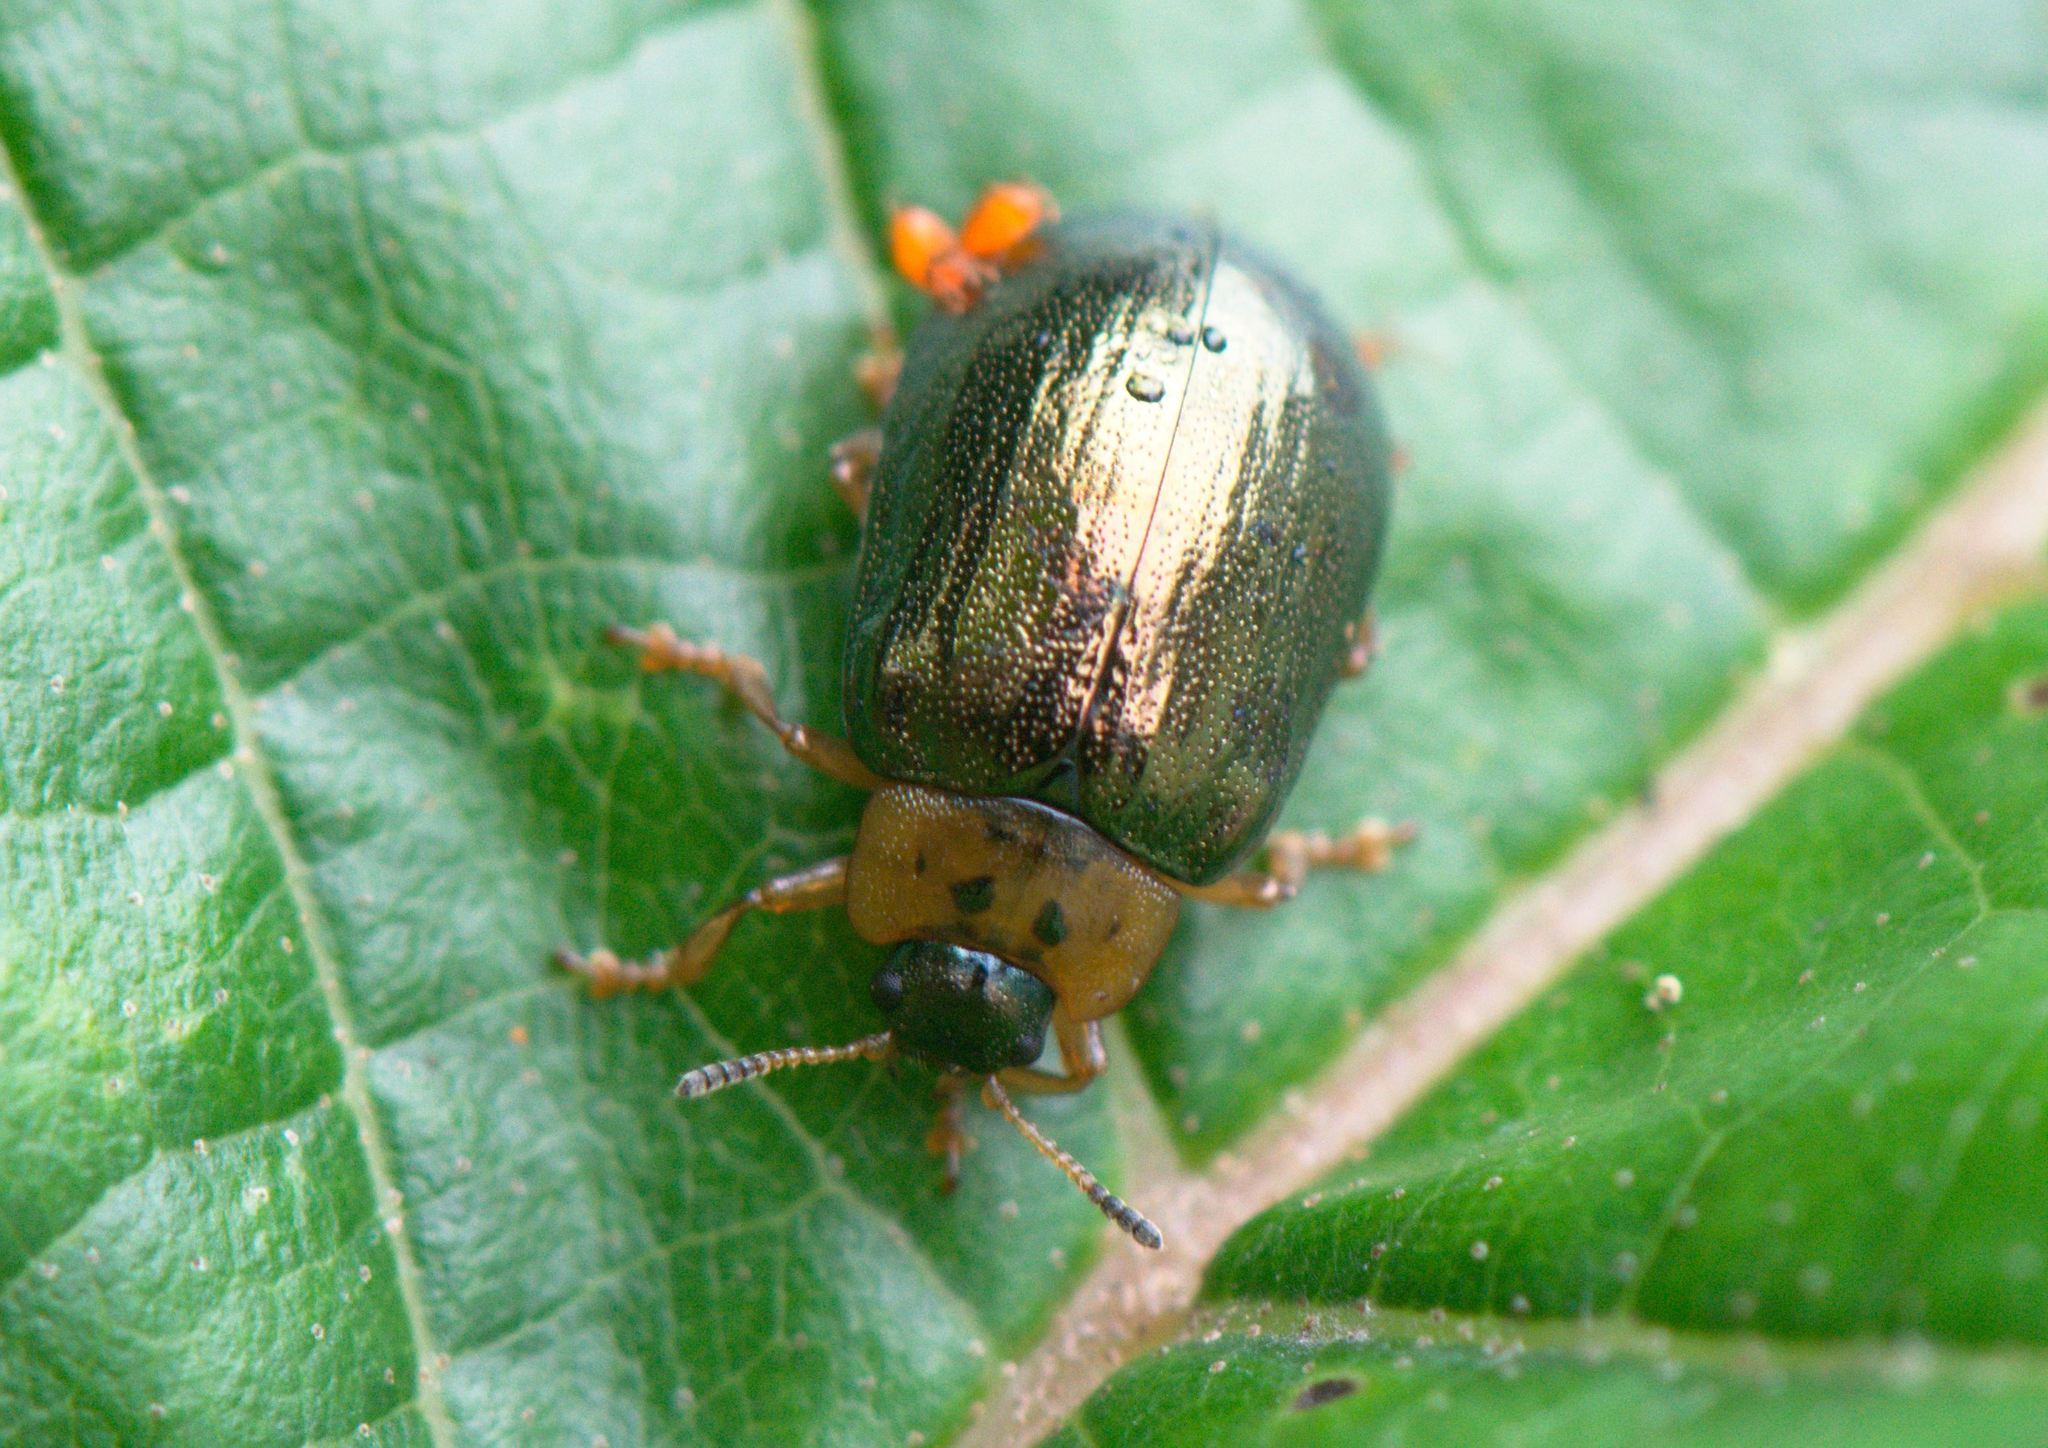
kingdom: Animalia
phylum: Arthropoda
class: Insecta
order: Coleoptera
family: Chrysomelidae
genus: Plagiosterna
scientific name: Plagiosterna
